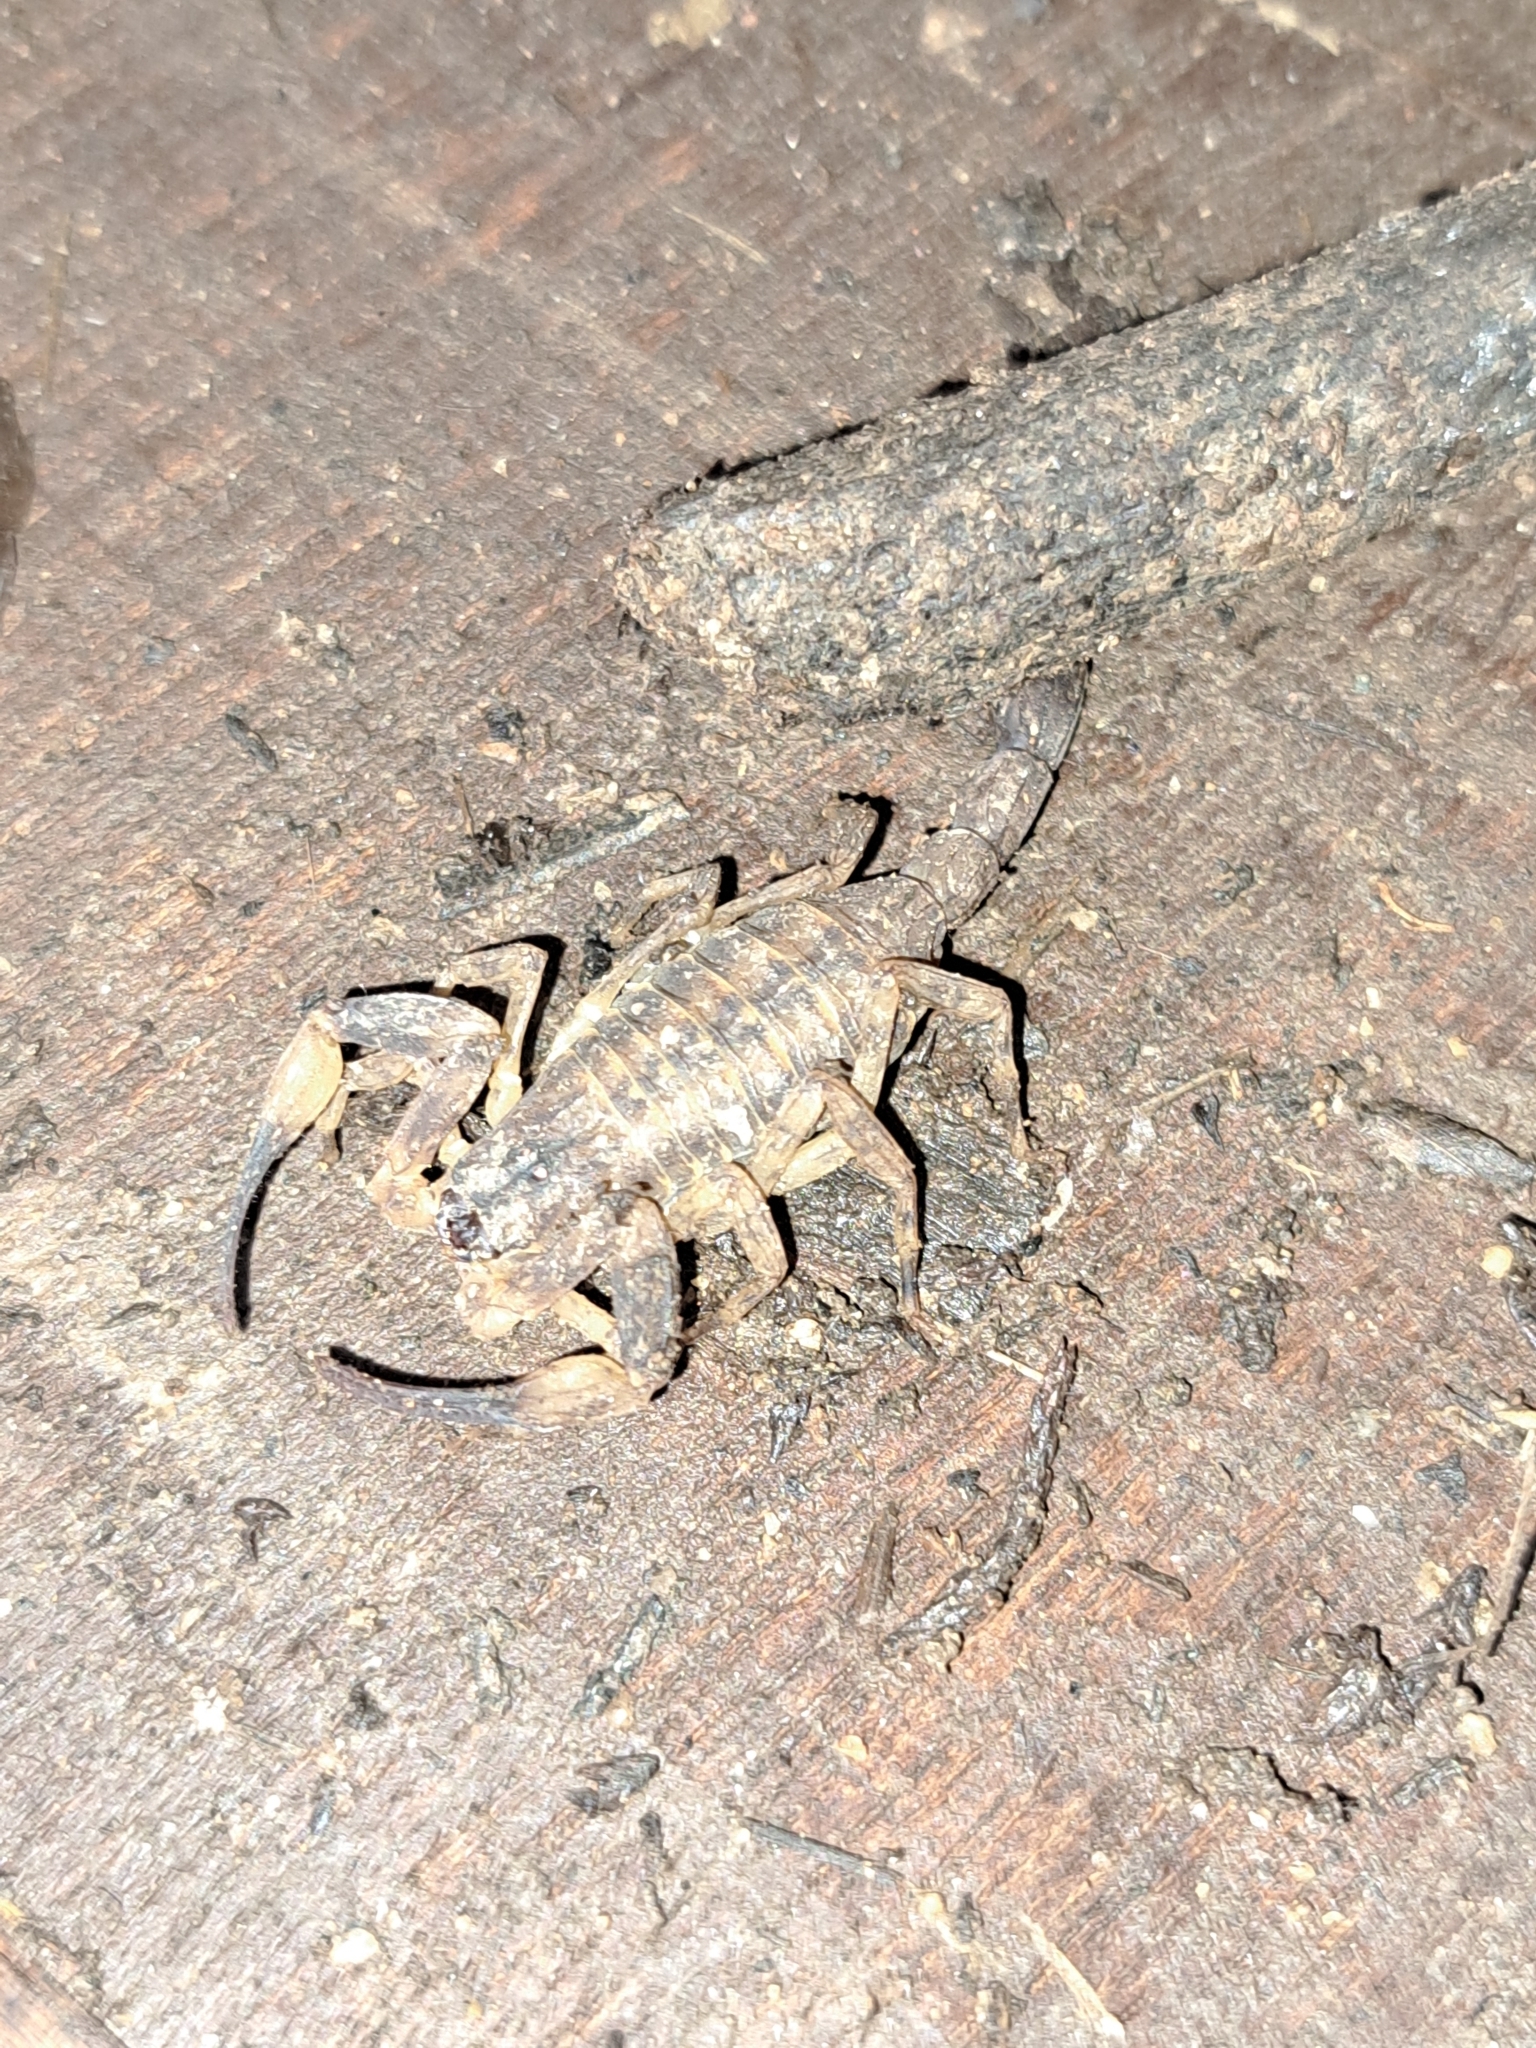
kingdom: Animalia
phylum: Arthropoda
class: Arachnida
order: Scorpiones
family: Buthidae
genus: Tityus
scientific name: Tityus costatus
